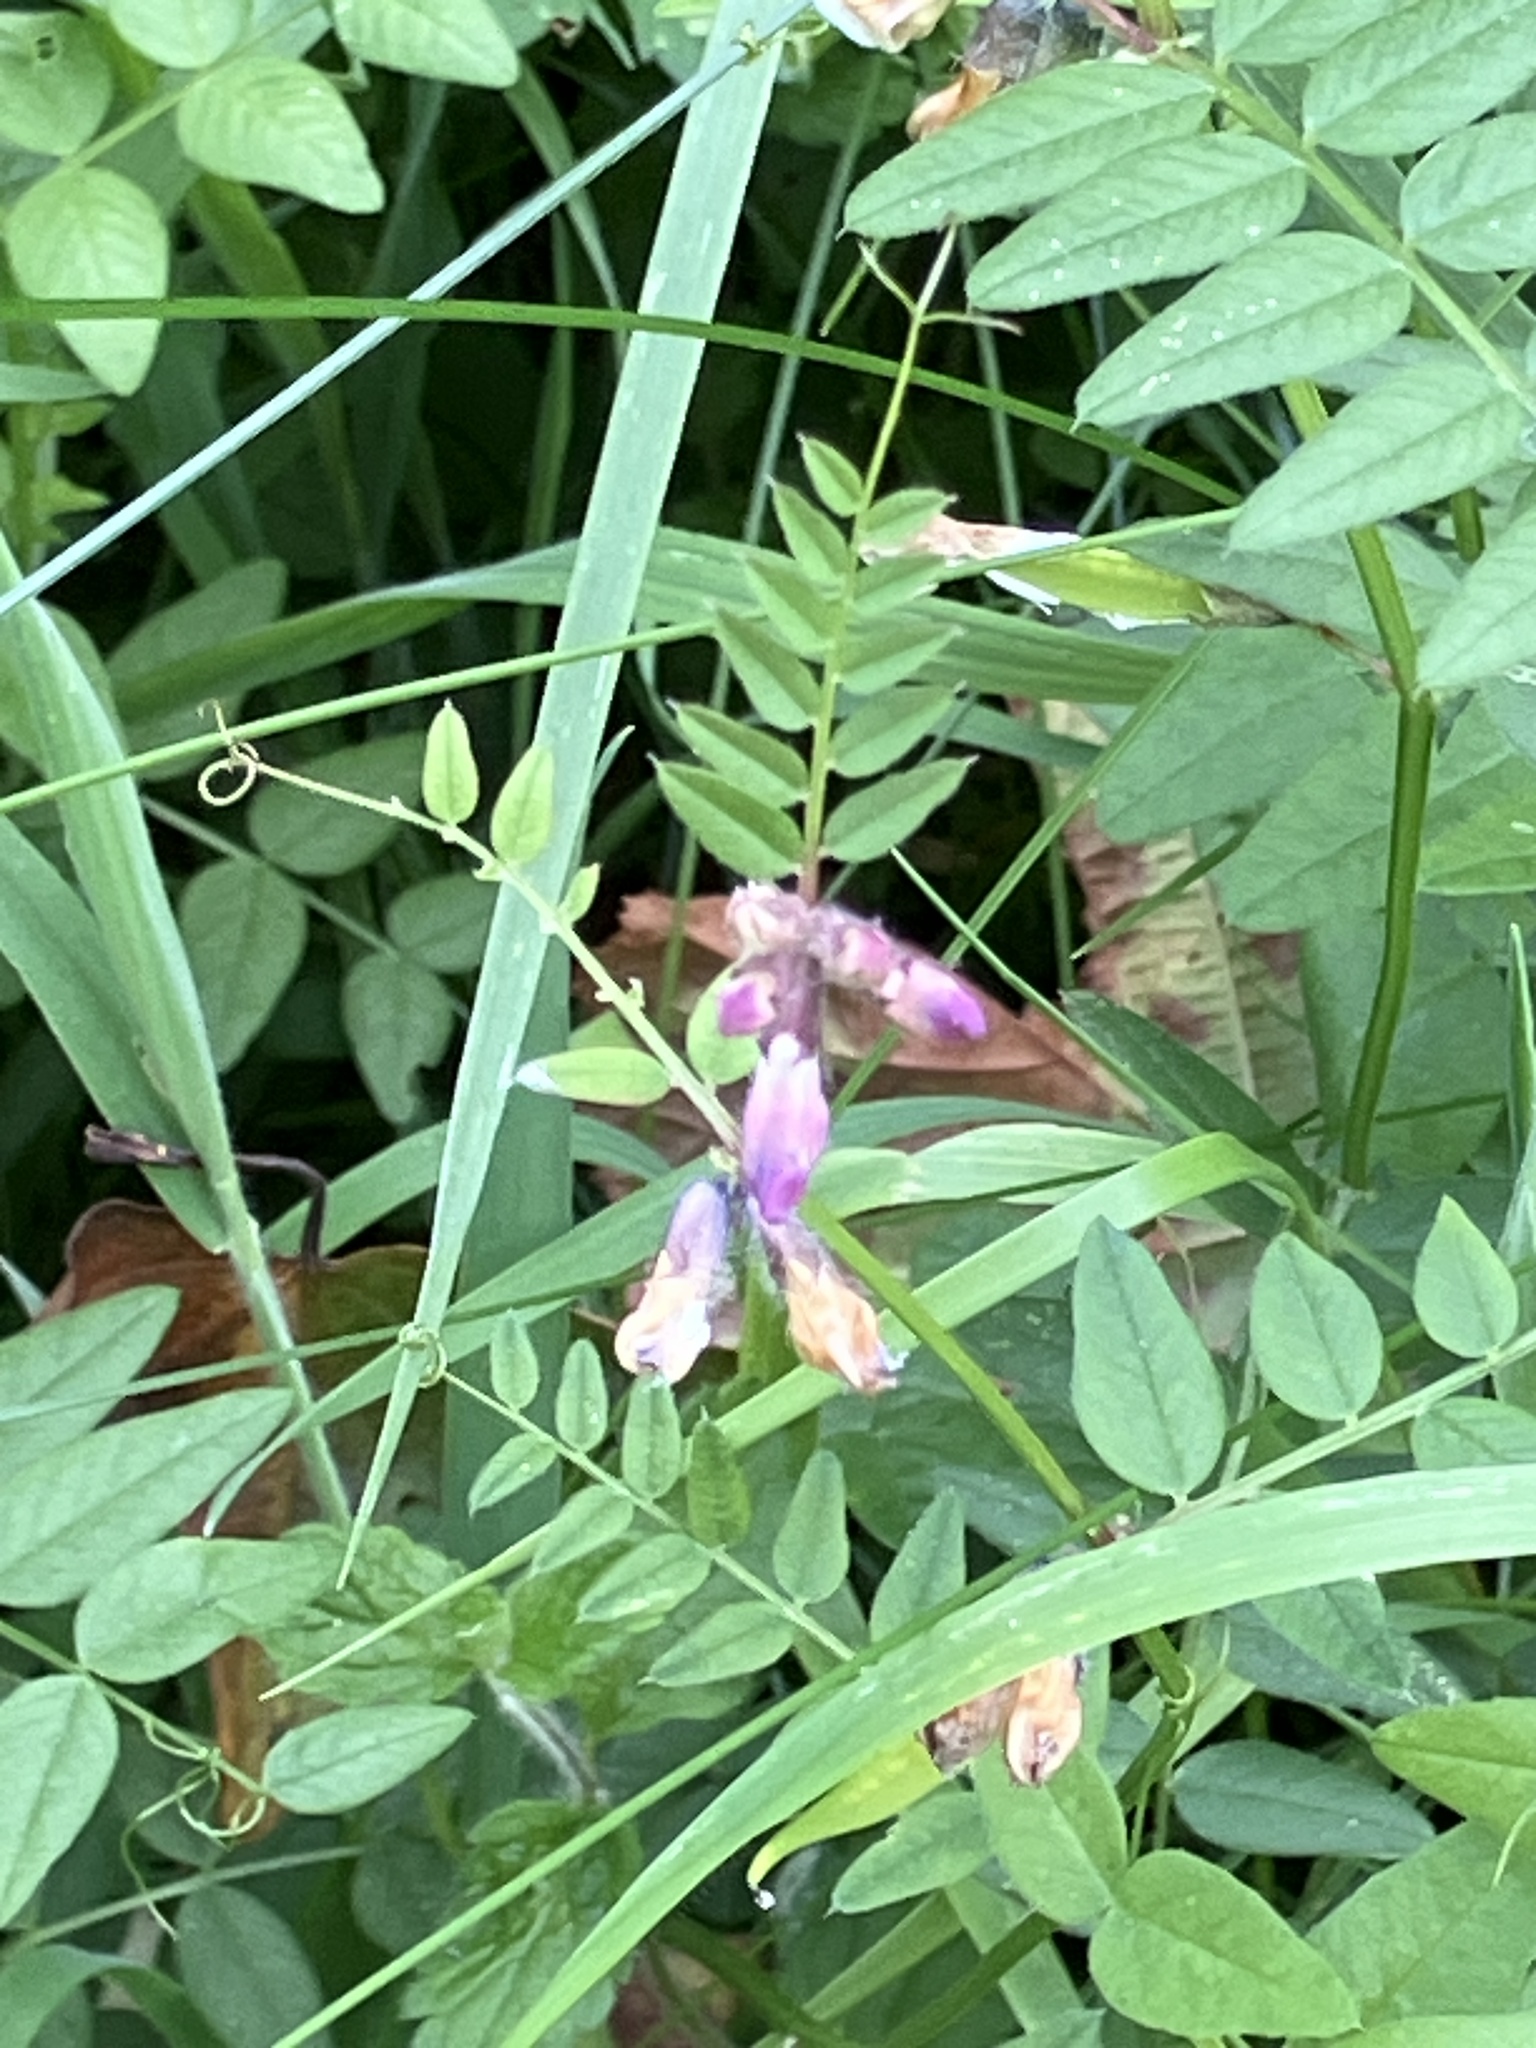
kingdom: Plantae
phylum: Tracheophyta
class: Magnoliopsida
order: Fabales
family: Fabaceae
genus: Vicia
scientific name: Vicia sepium
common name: Bush vetch
